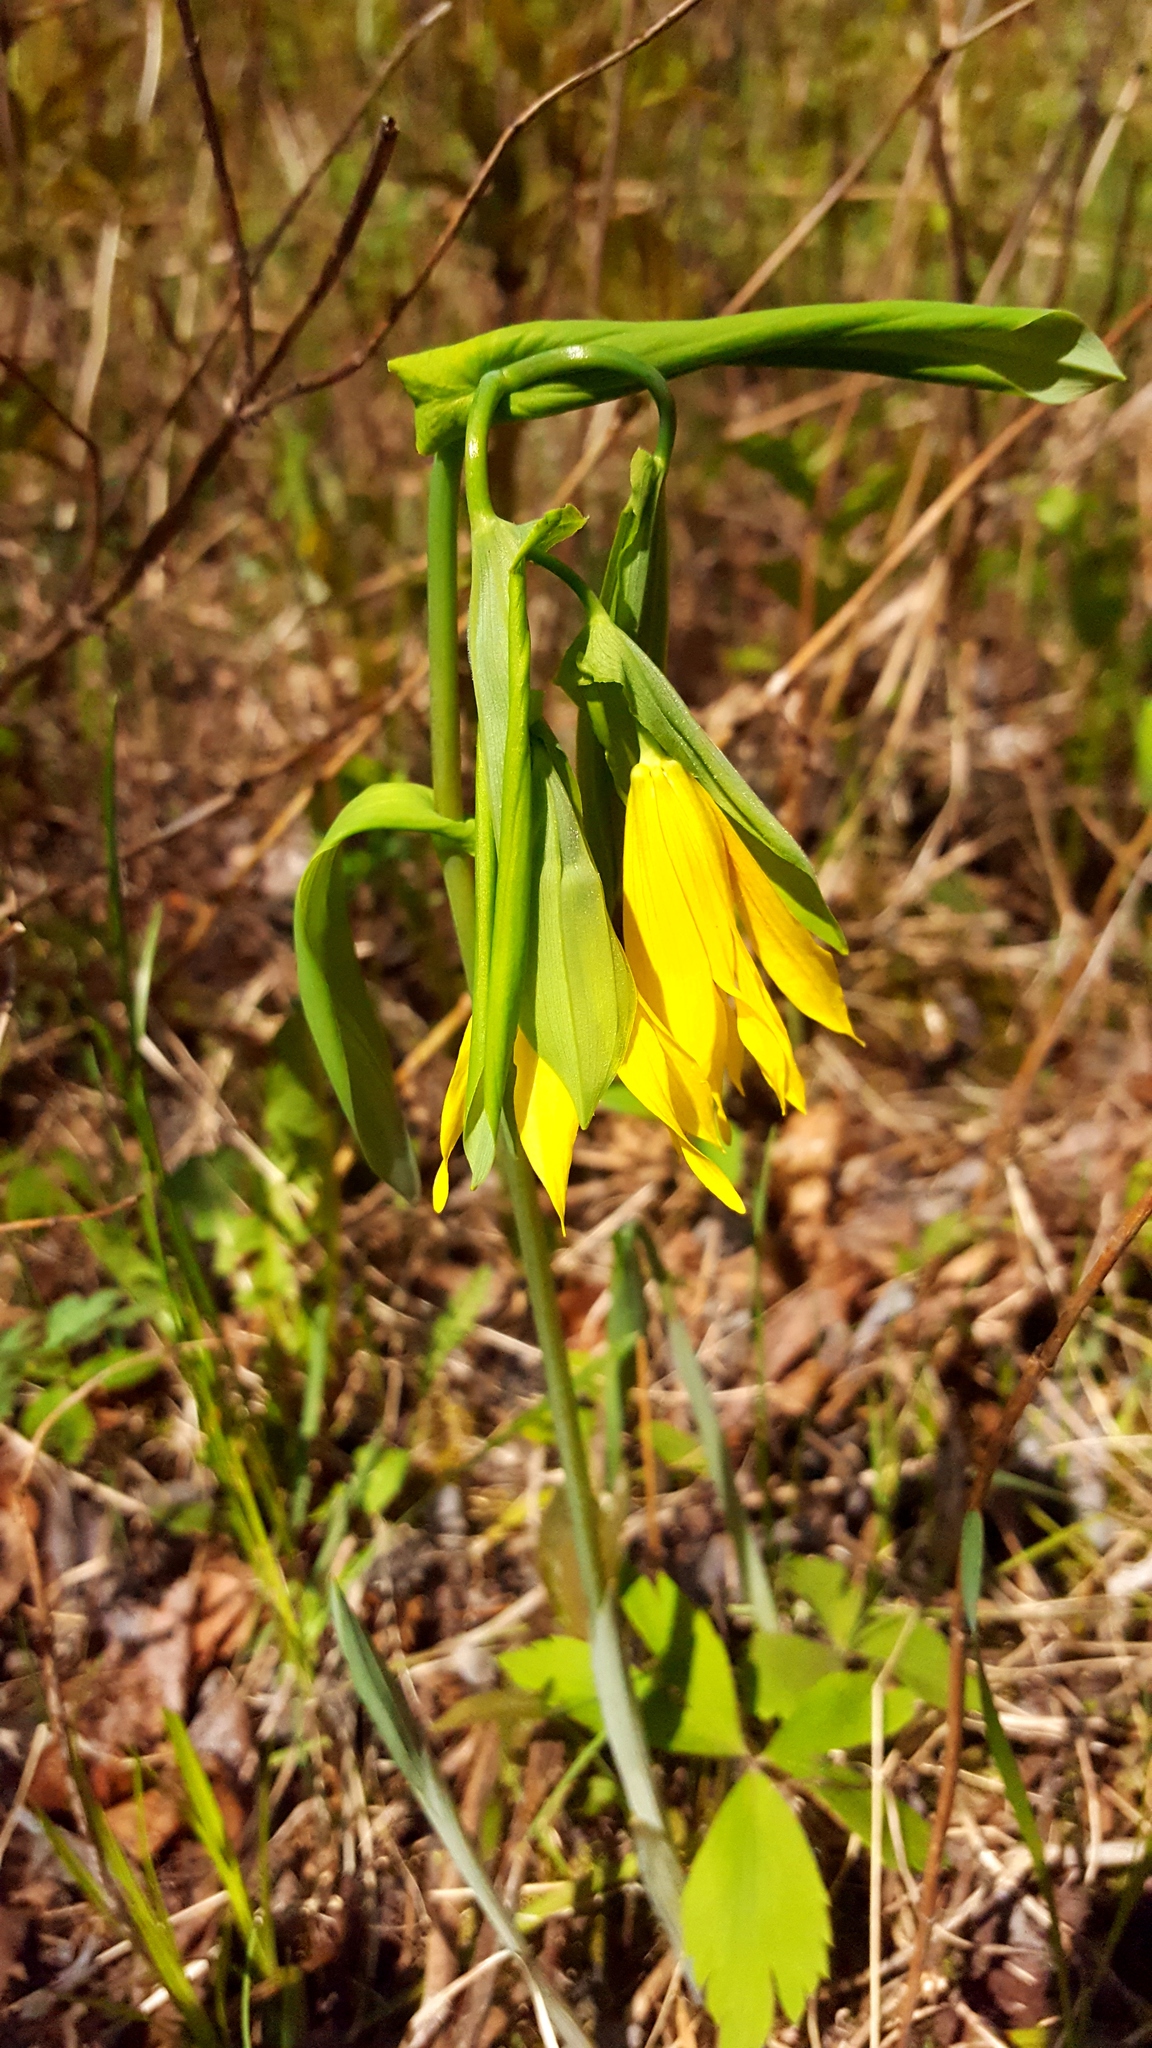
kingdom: Plantae
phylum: Tracheophyta
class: Liliopsida
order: Liliales
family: Colchicaceae
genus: Uvularia
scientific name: Uvularia grandiflora
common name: Bellwort
